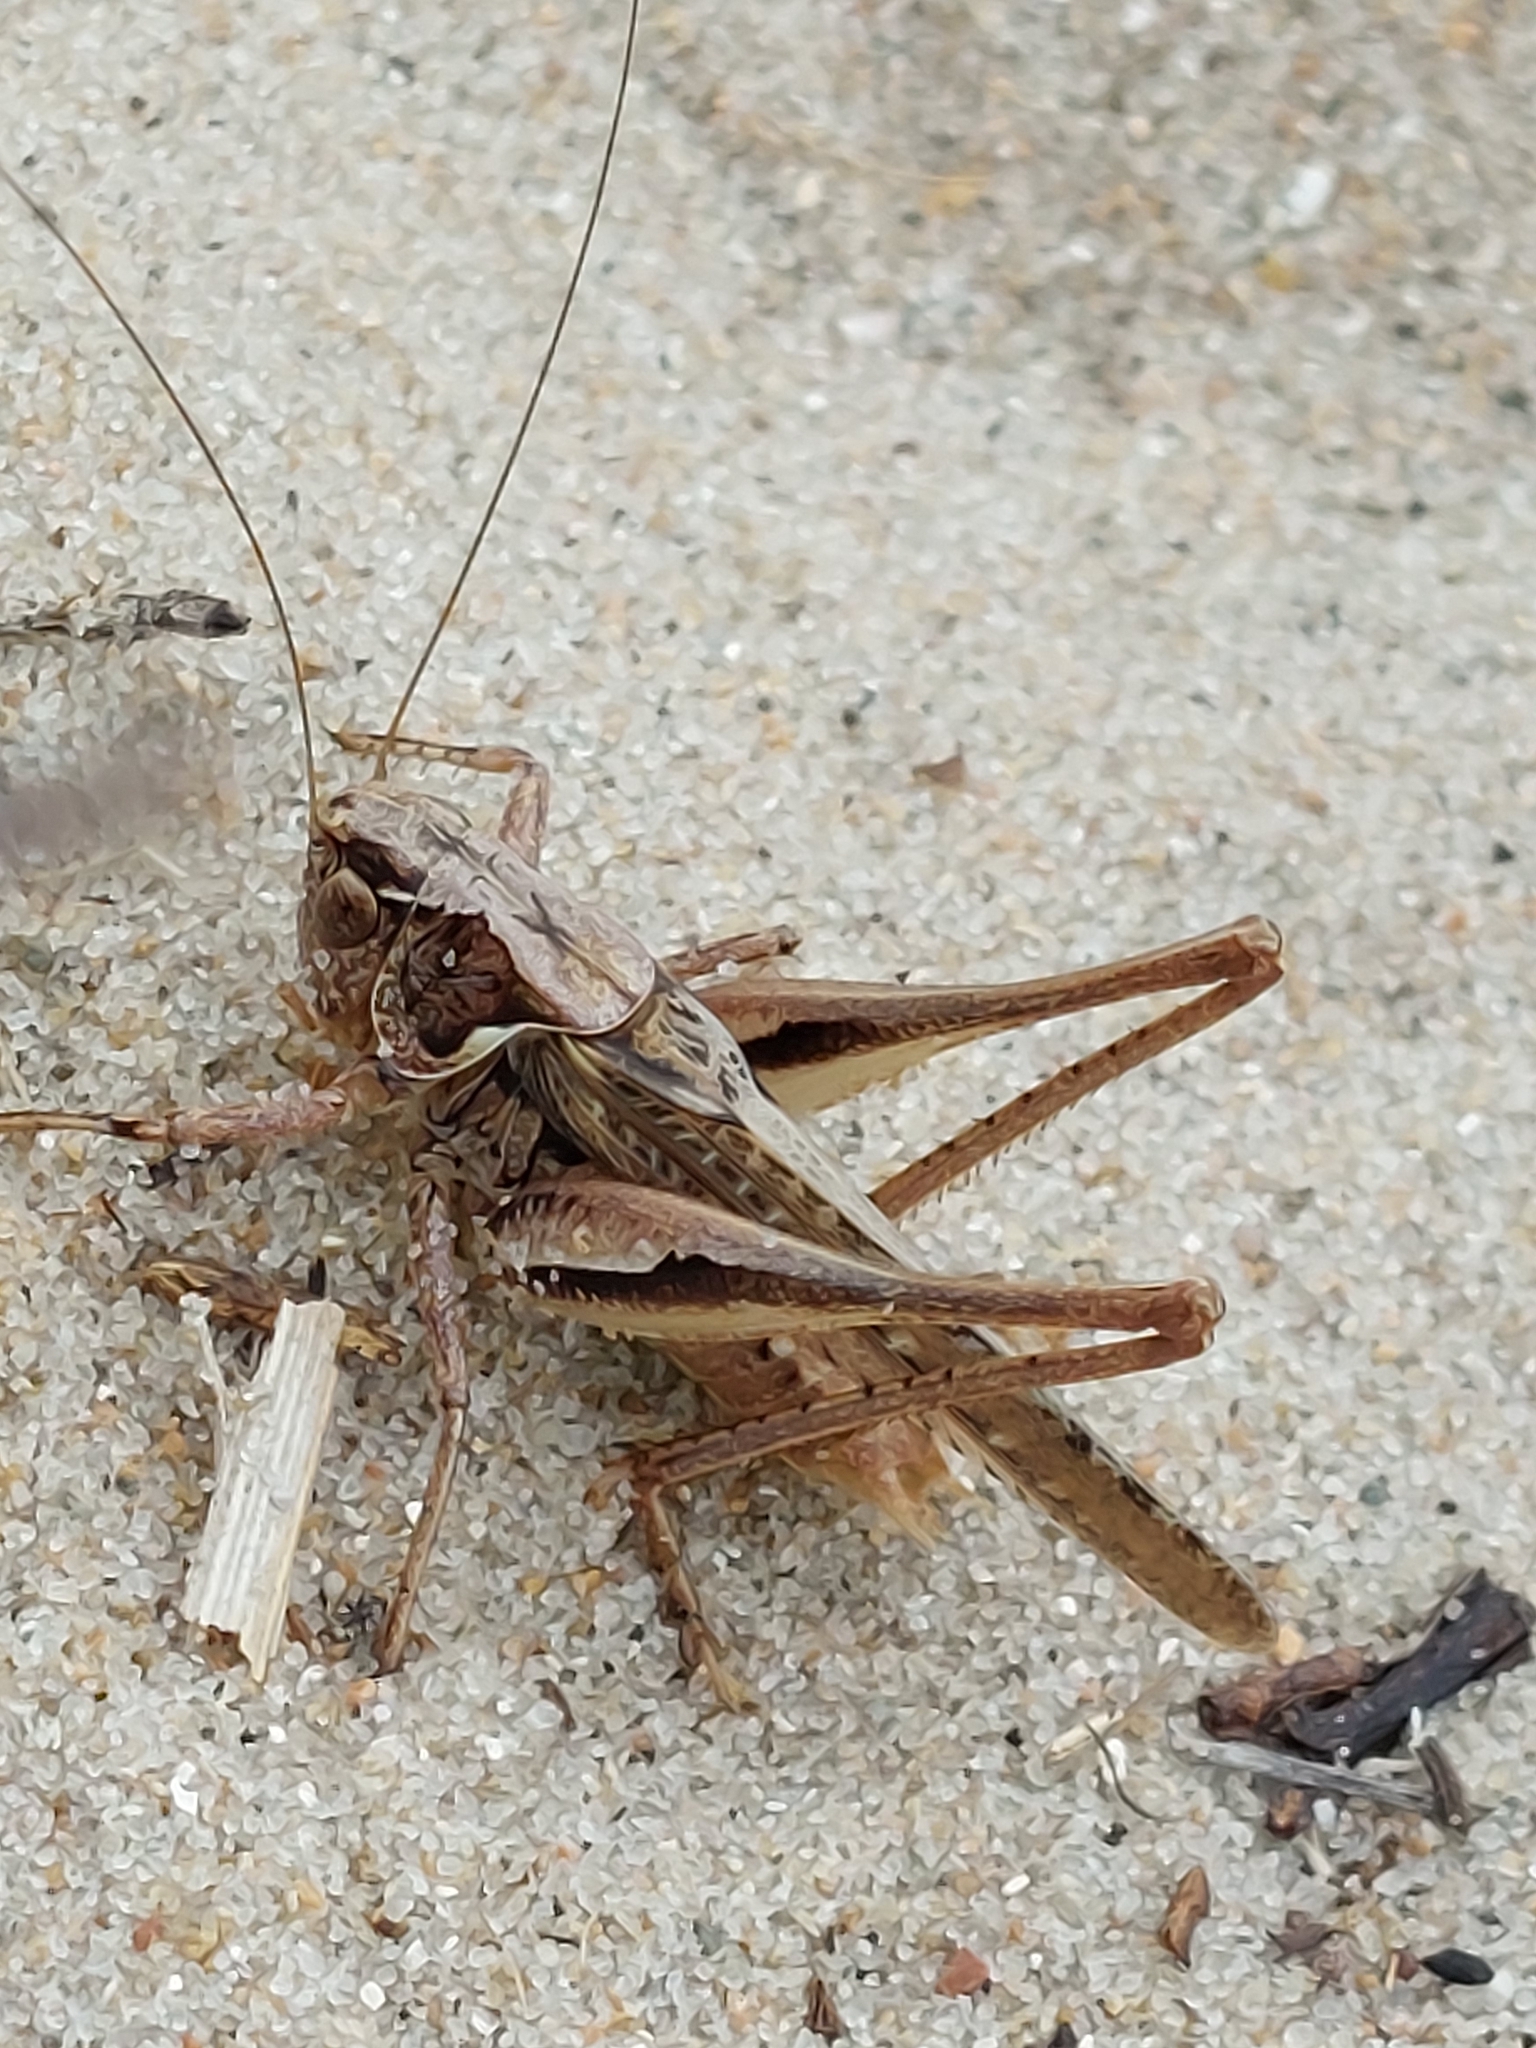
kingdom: Animalia
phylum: Arthropoda
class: Insecta
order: Orthoptera
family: Tettigoniidae
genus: Platycleis
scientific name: Platycleis albopunctata
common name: Grey bush-cricket
